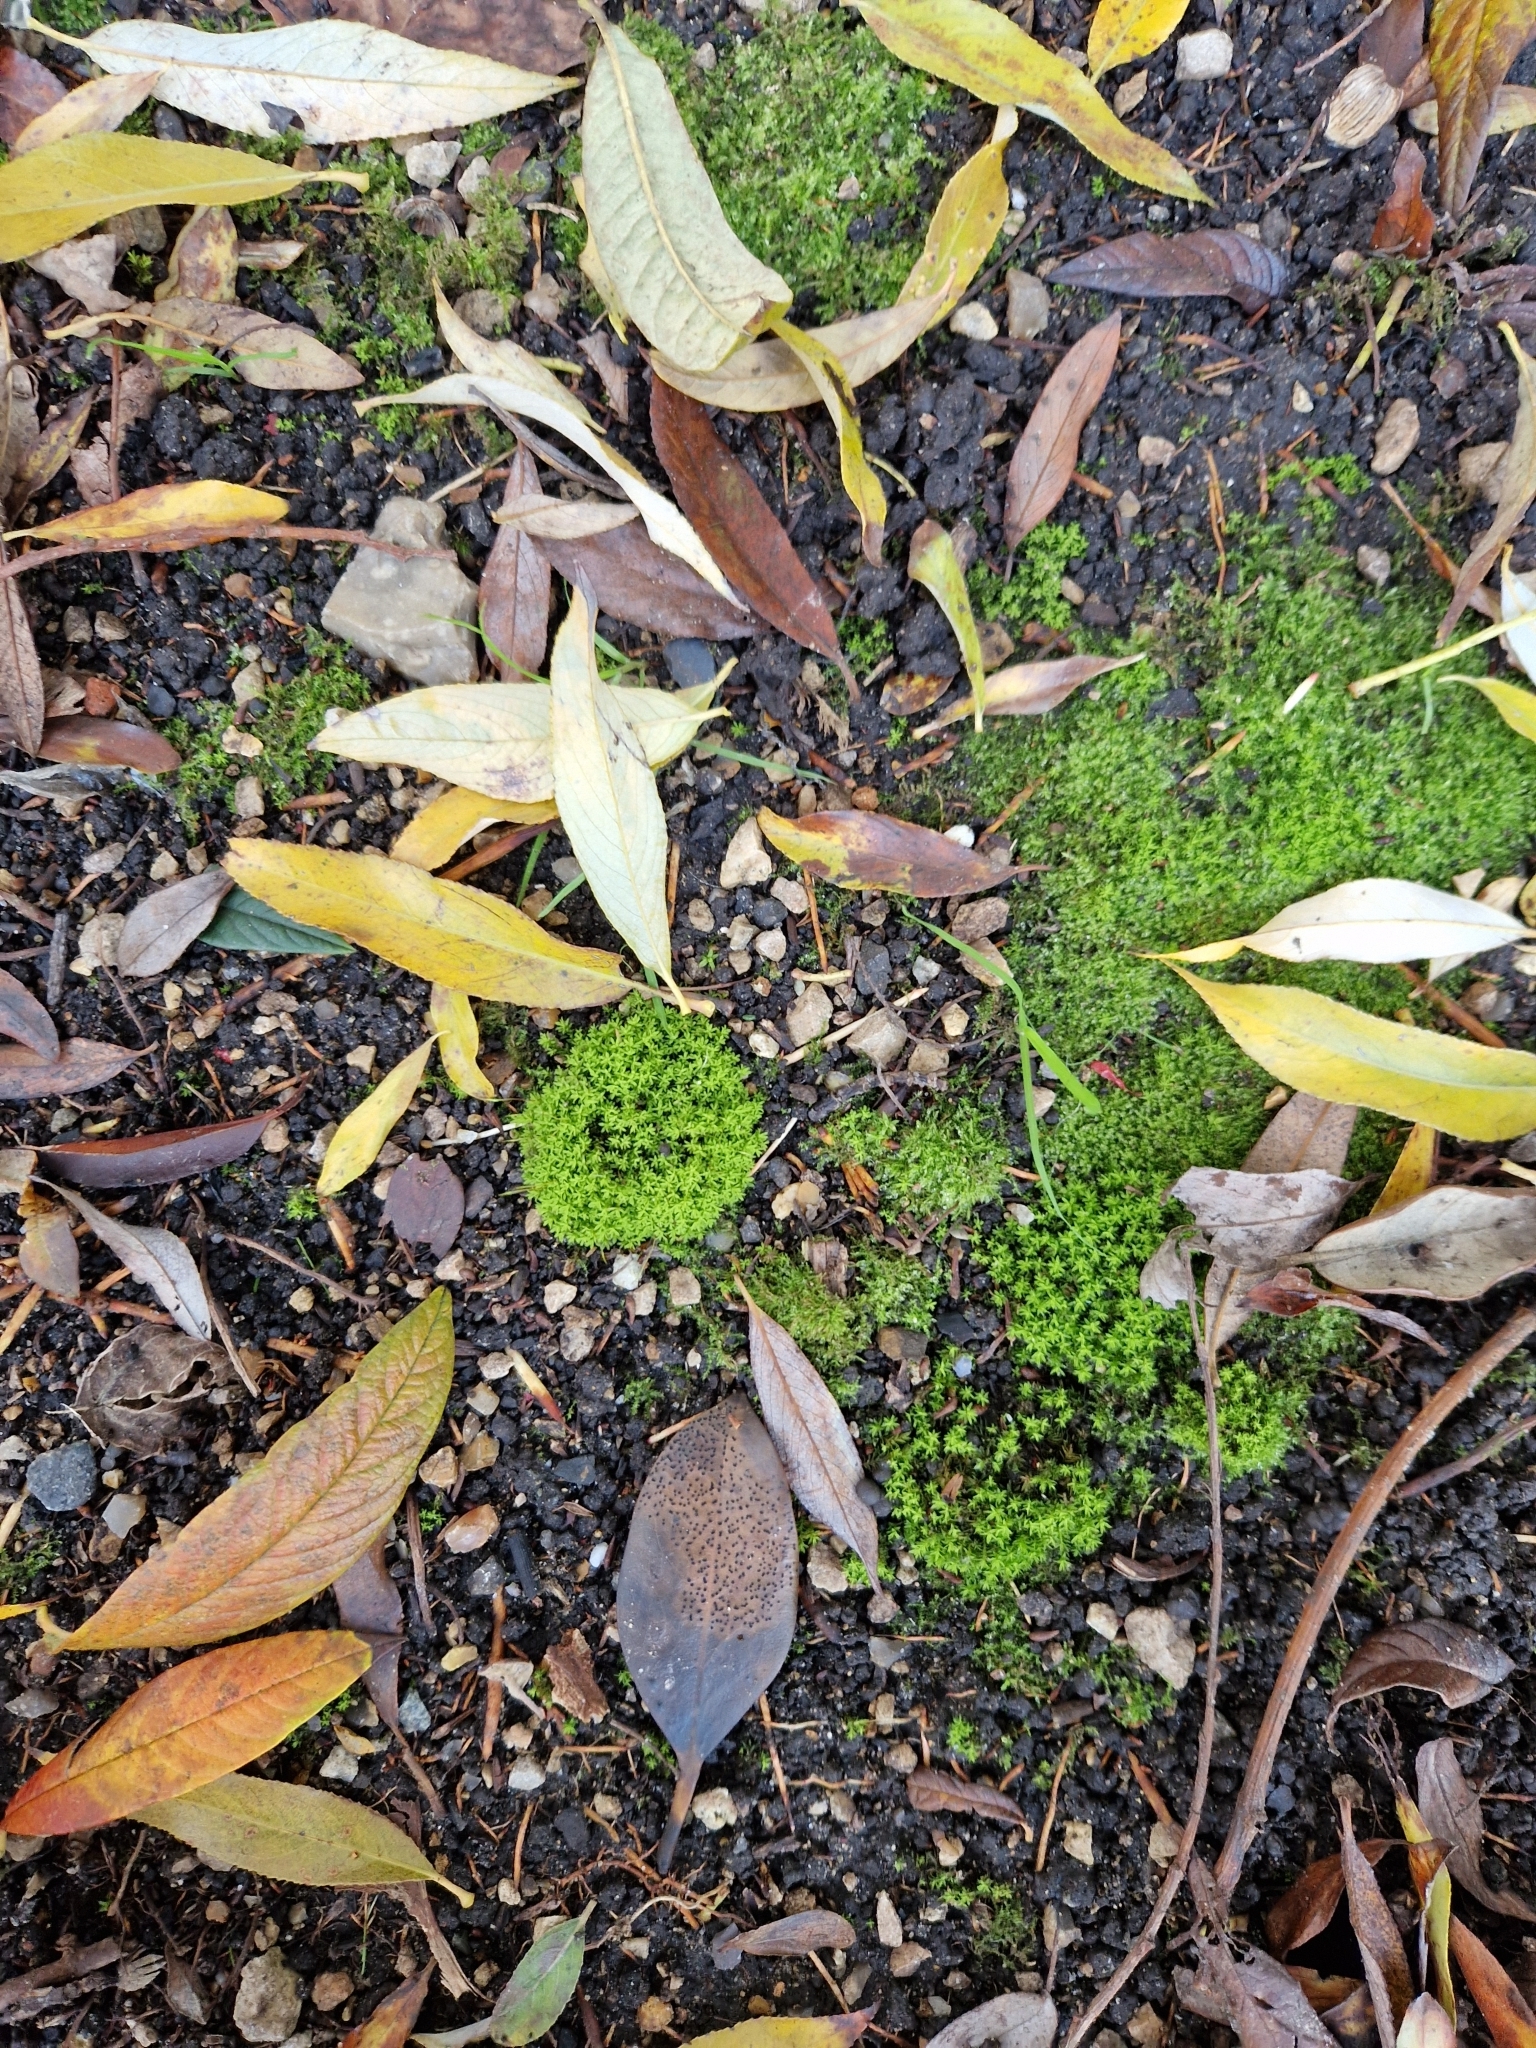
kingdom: Plantae
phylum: Bryophyta
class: Bryopsida
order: Pottiales
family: Pottiaceae
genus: Barbula
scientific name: Barbula unguiculata
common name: Prickly beard moss
